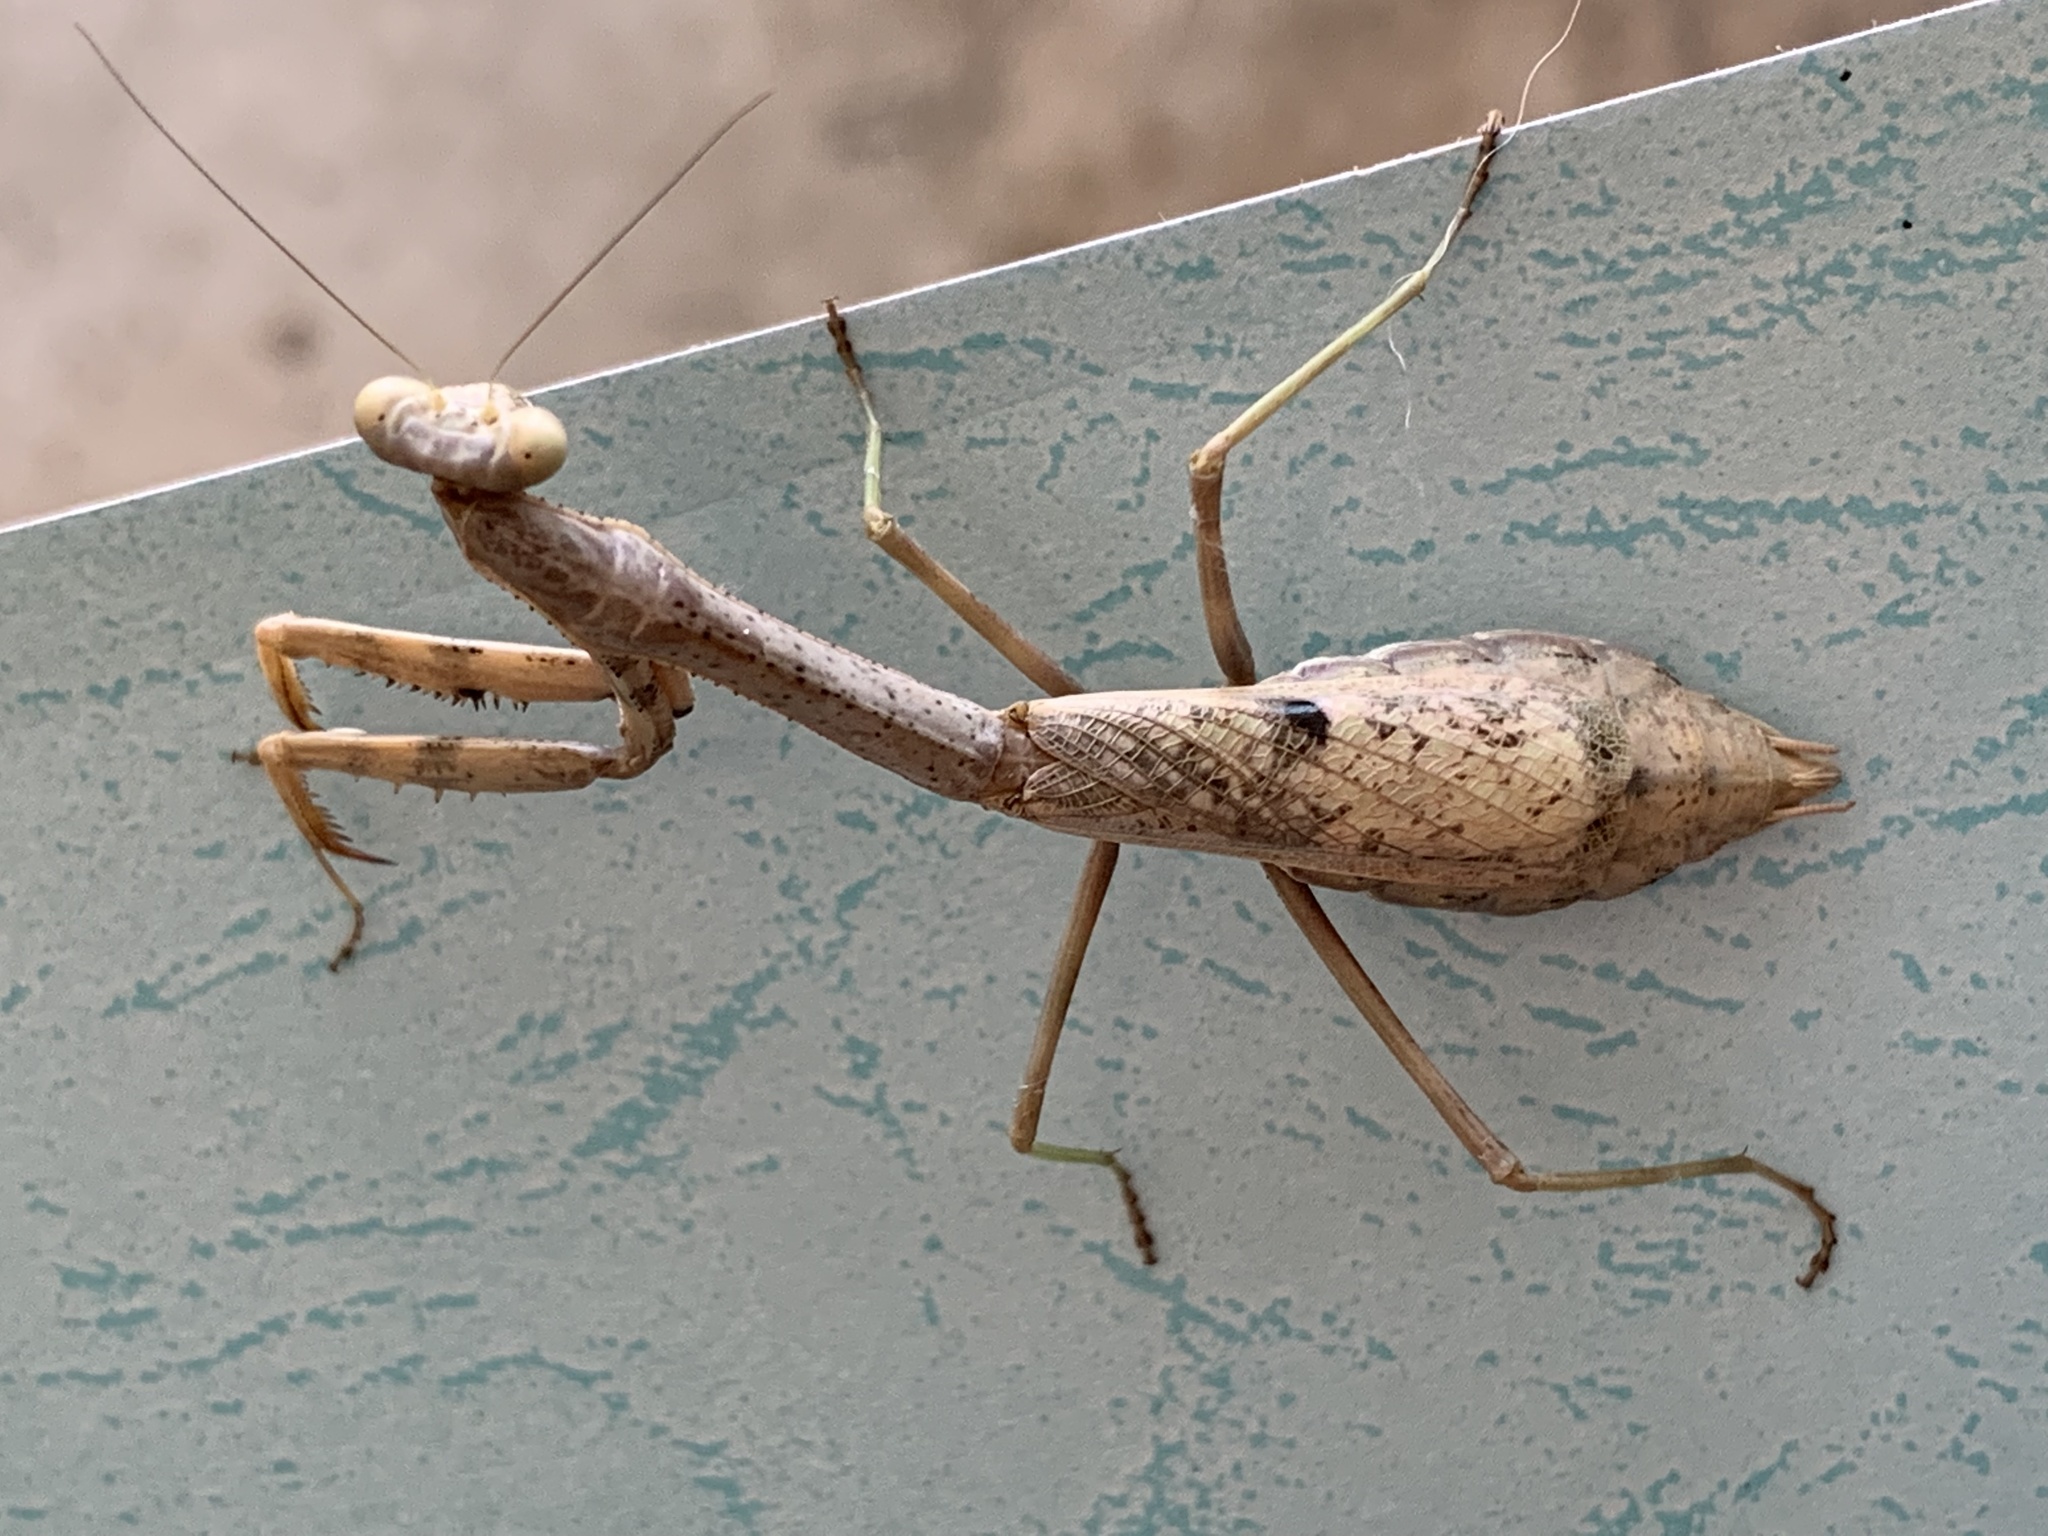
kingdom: Animalia
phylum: Arthropoda
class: Insecta
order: Mantodea
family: Mantidae
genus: Stagmomantis
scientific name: Stagmomantis carolina
